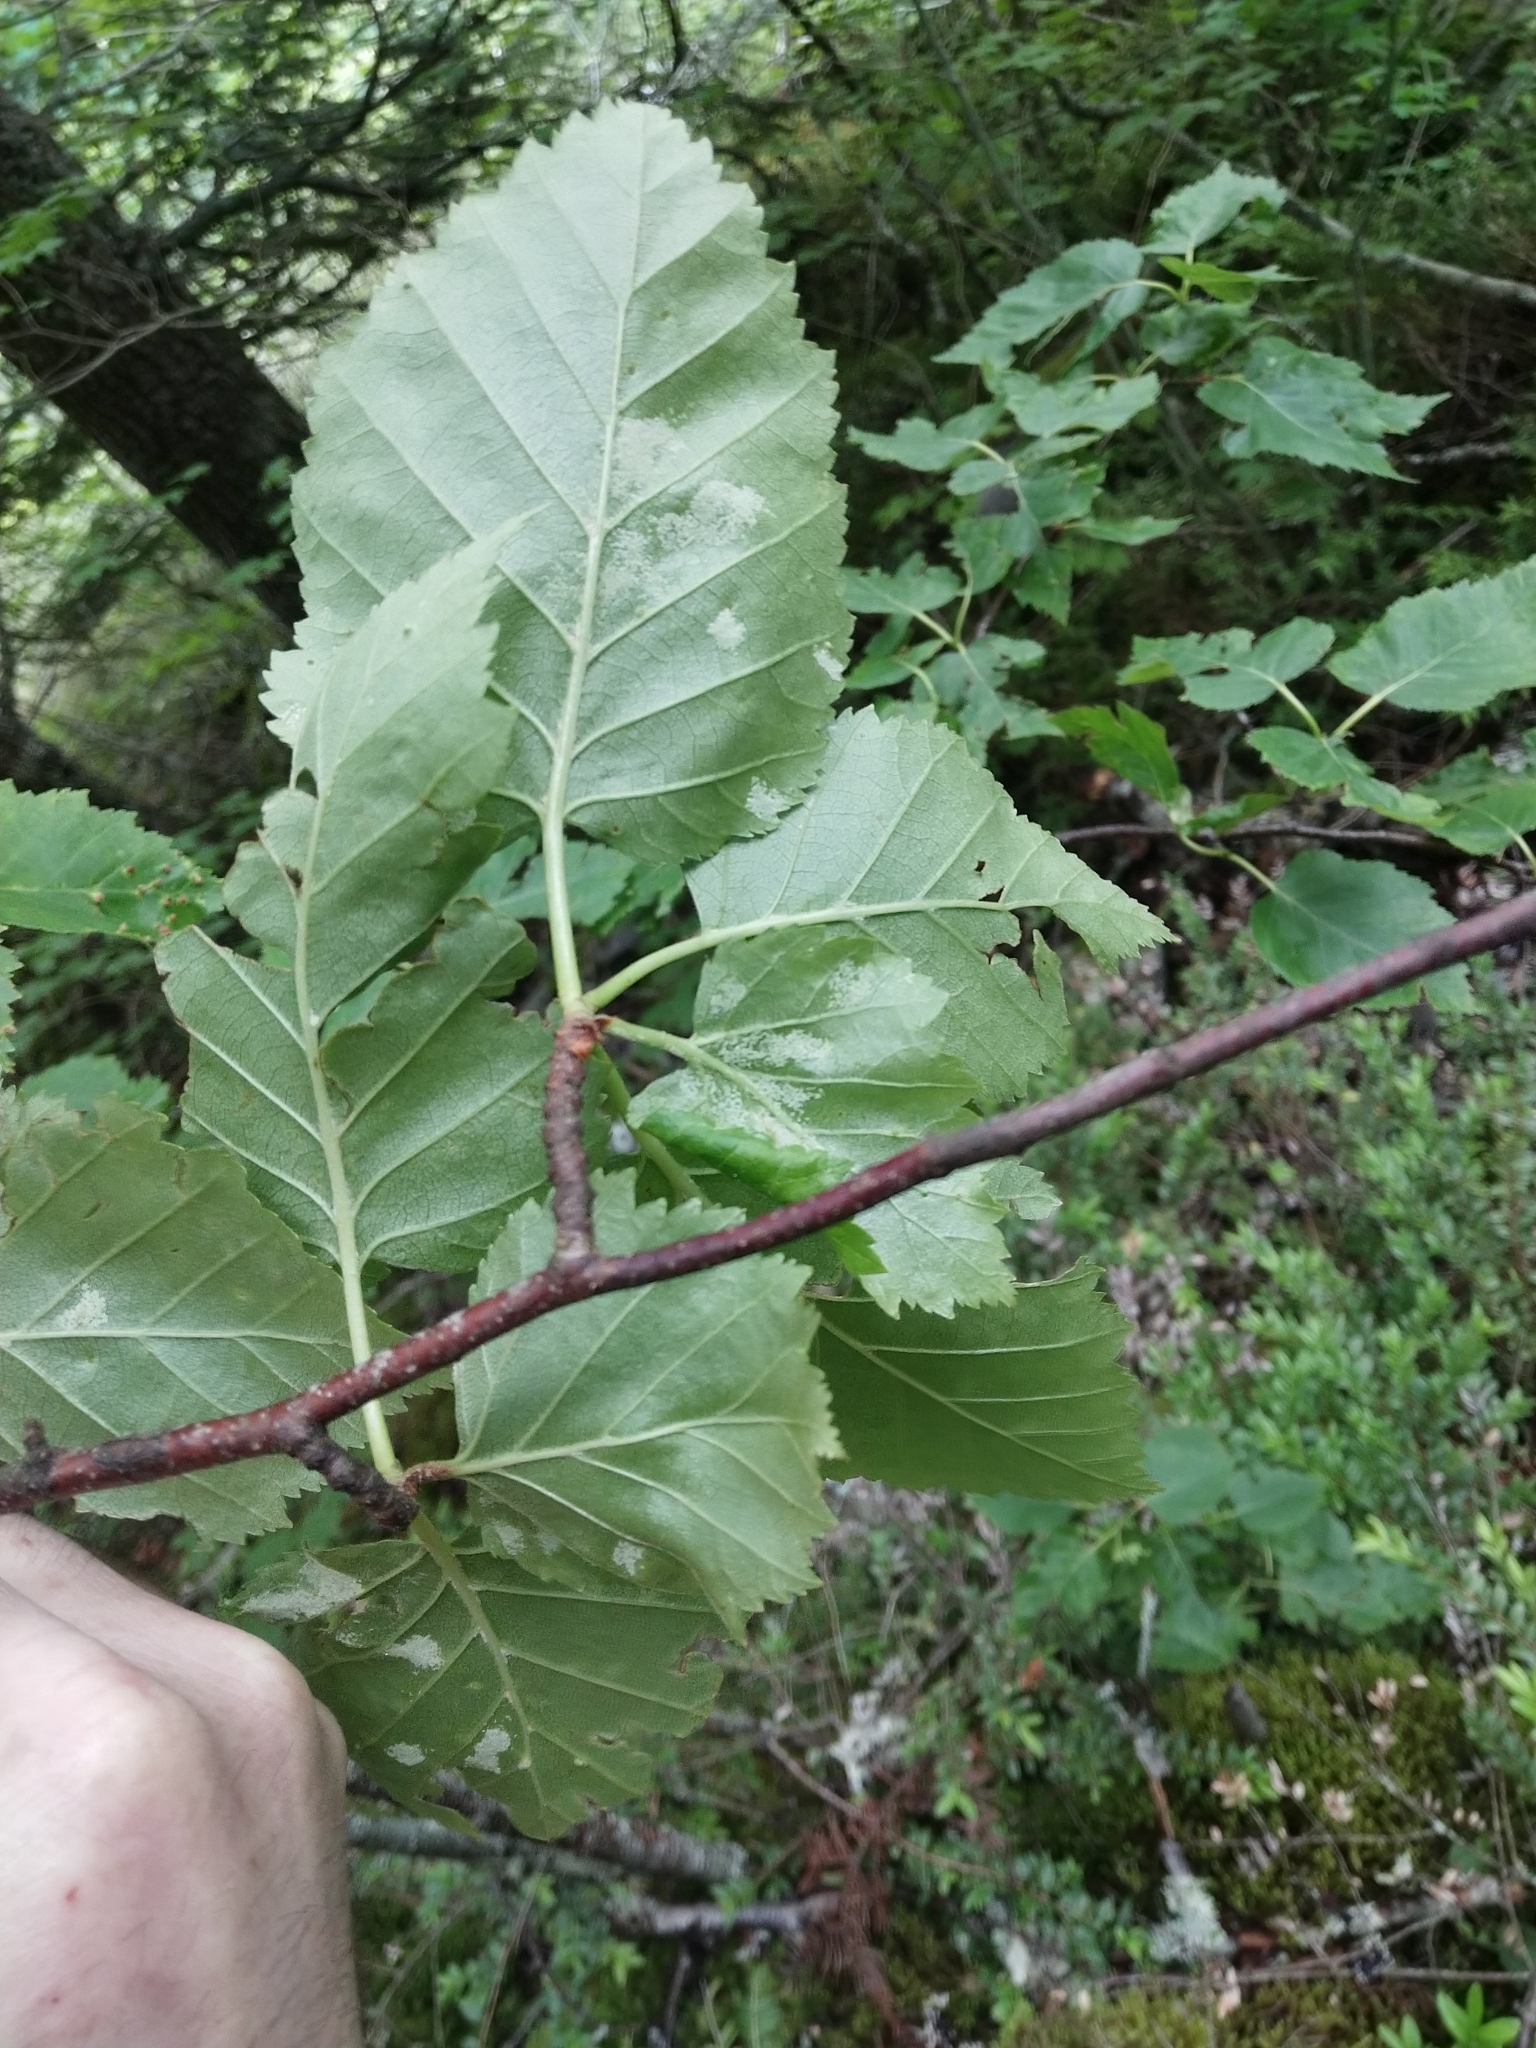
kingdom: Plantae
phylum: Tracheophyta
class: Magnoliopsida
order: Fagales
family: Betulaceae
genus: Betula
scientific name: Betula papyrifera
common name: Paper birch
